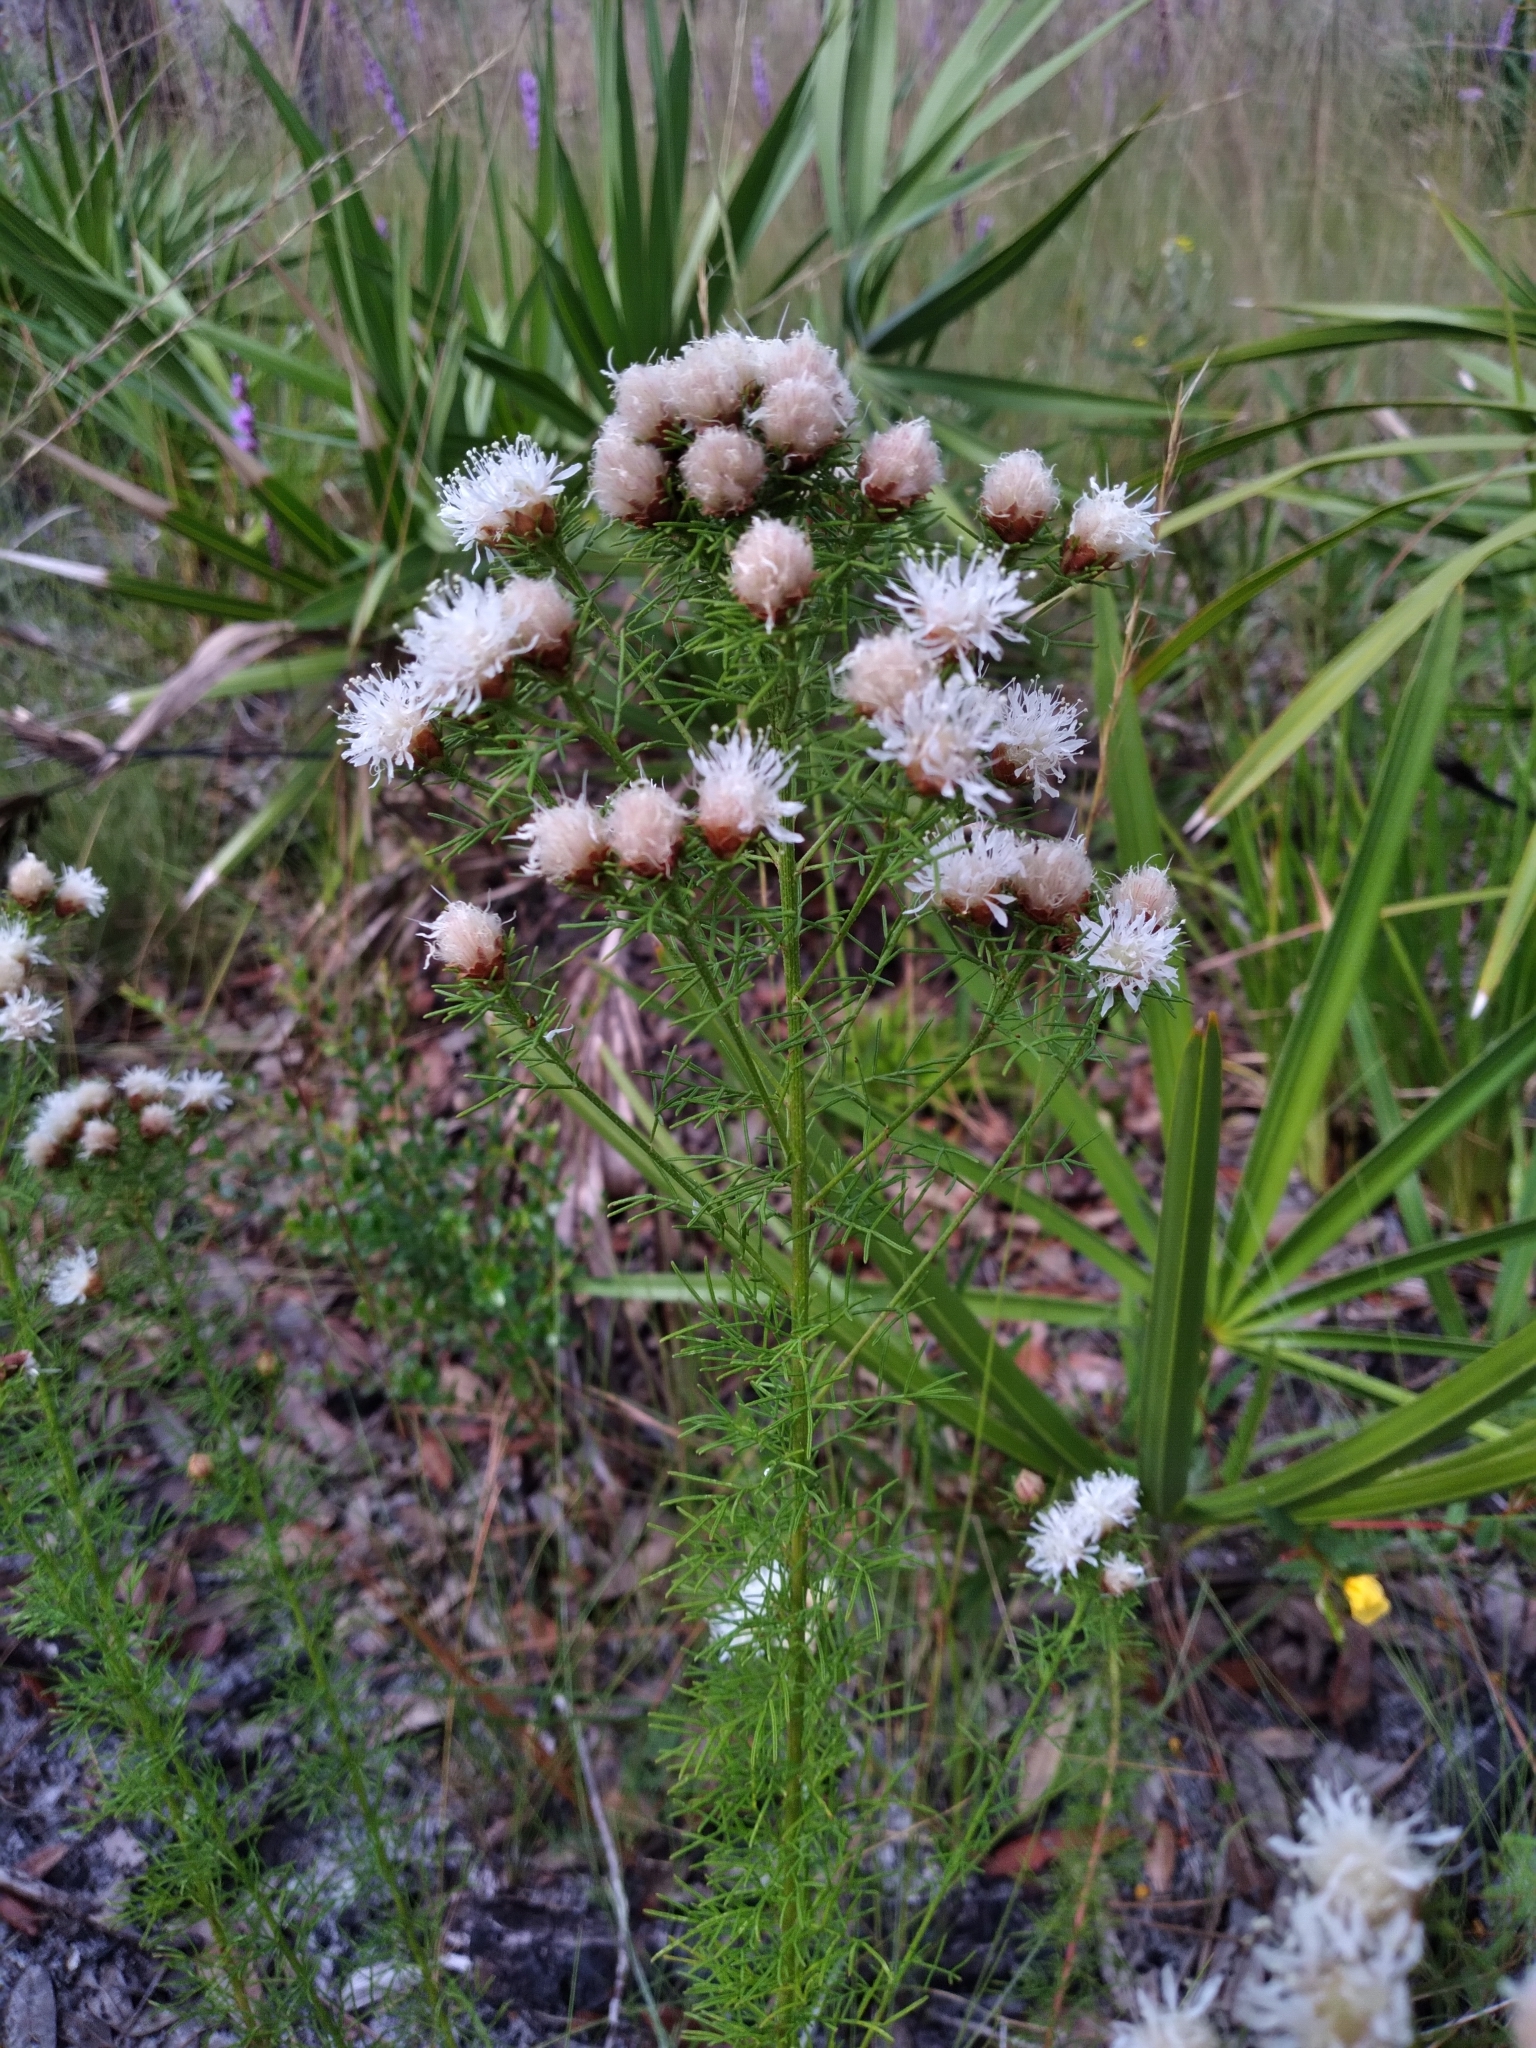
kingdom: Plantae
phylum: Tracheophyta
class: Magnoliopsida
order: Fabales
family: Fabaceae
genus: Dalea
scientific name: Dalea pinnata
